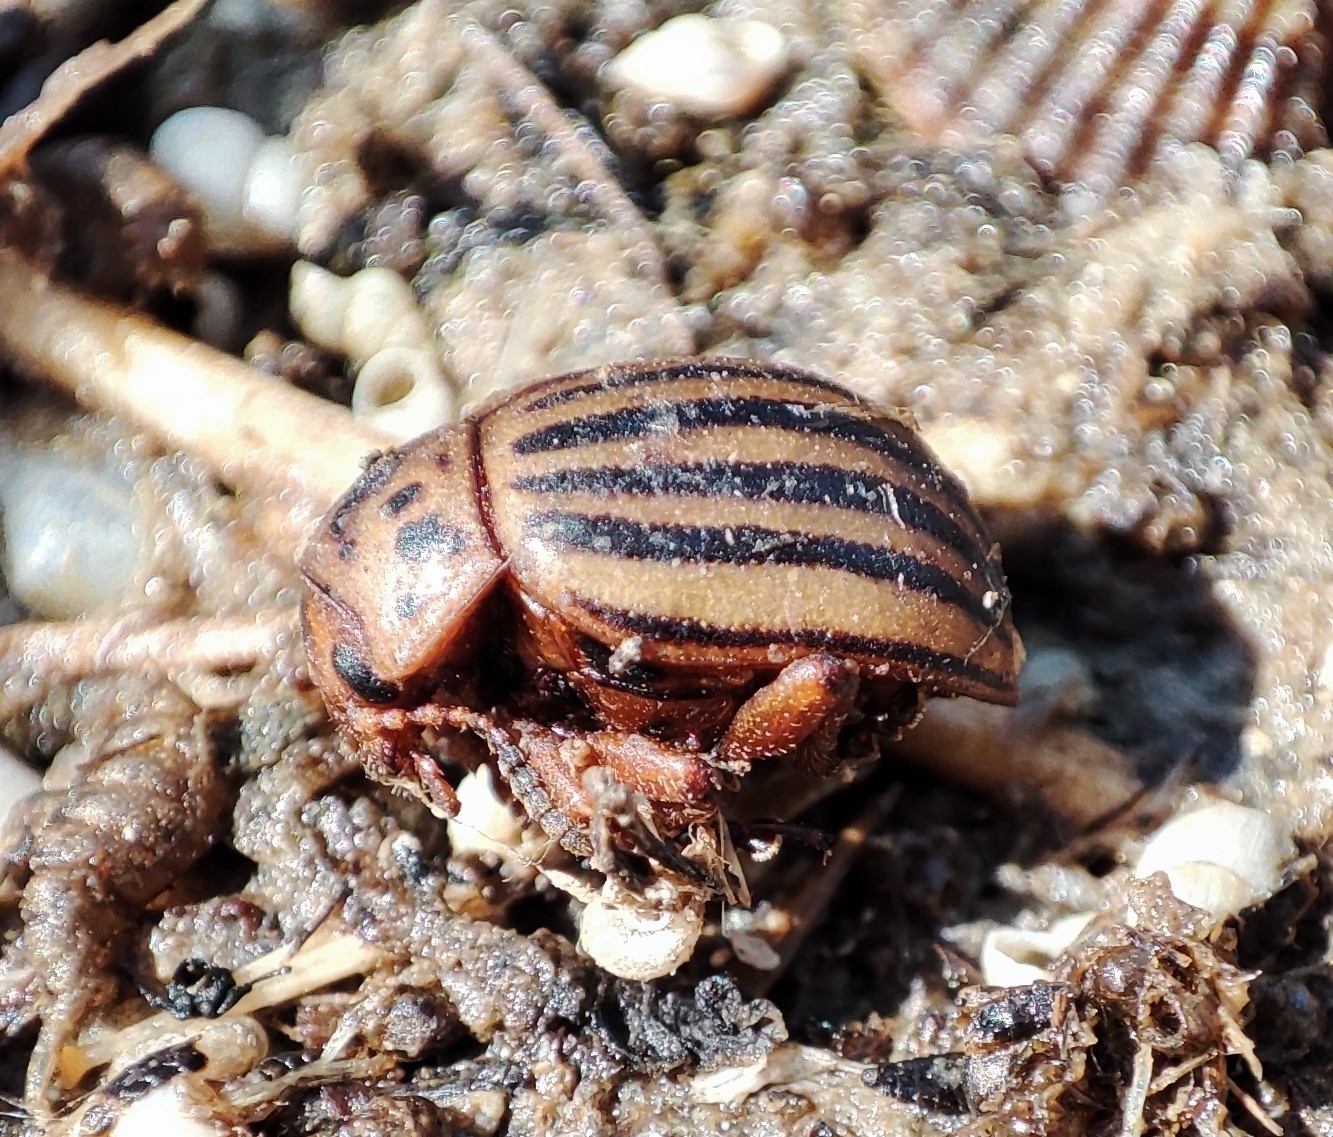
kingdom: Animalia
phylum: Arthropoda
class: Insecta
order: Coleoptera
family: Chrysomelidae
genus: Leptinotarsa
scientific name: Leptinotarsa decemlineata
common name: Colorado potato beetle
